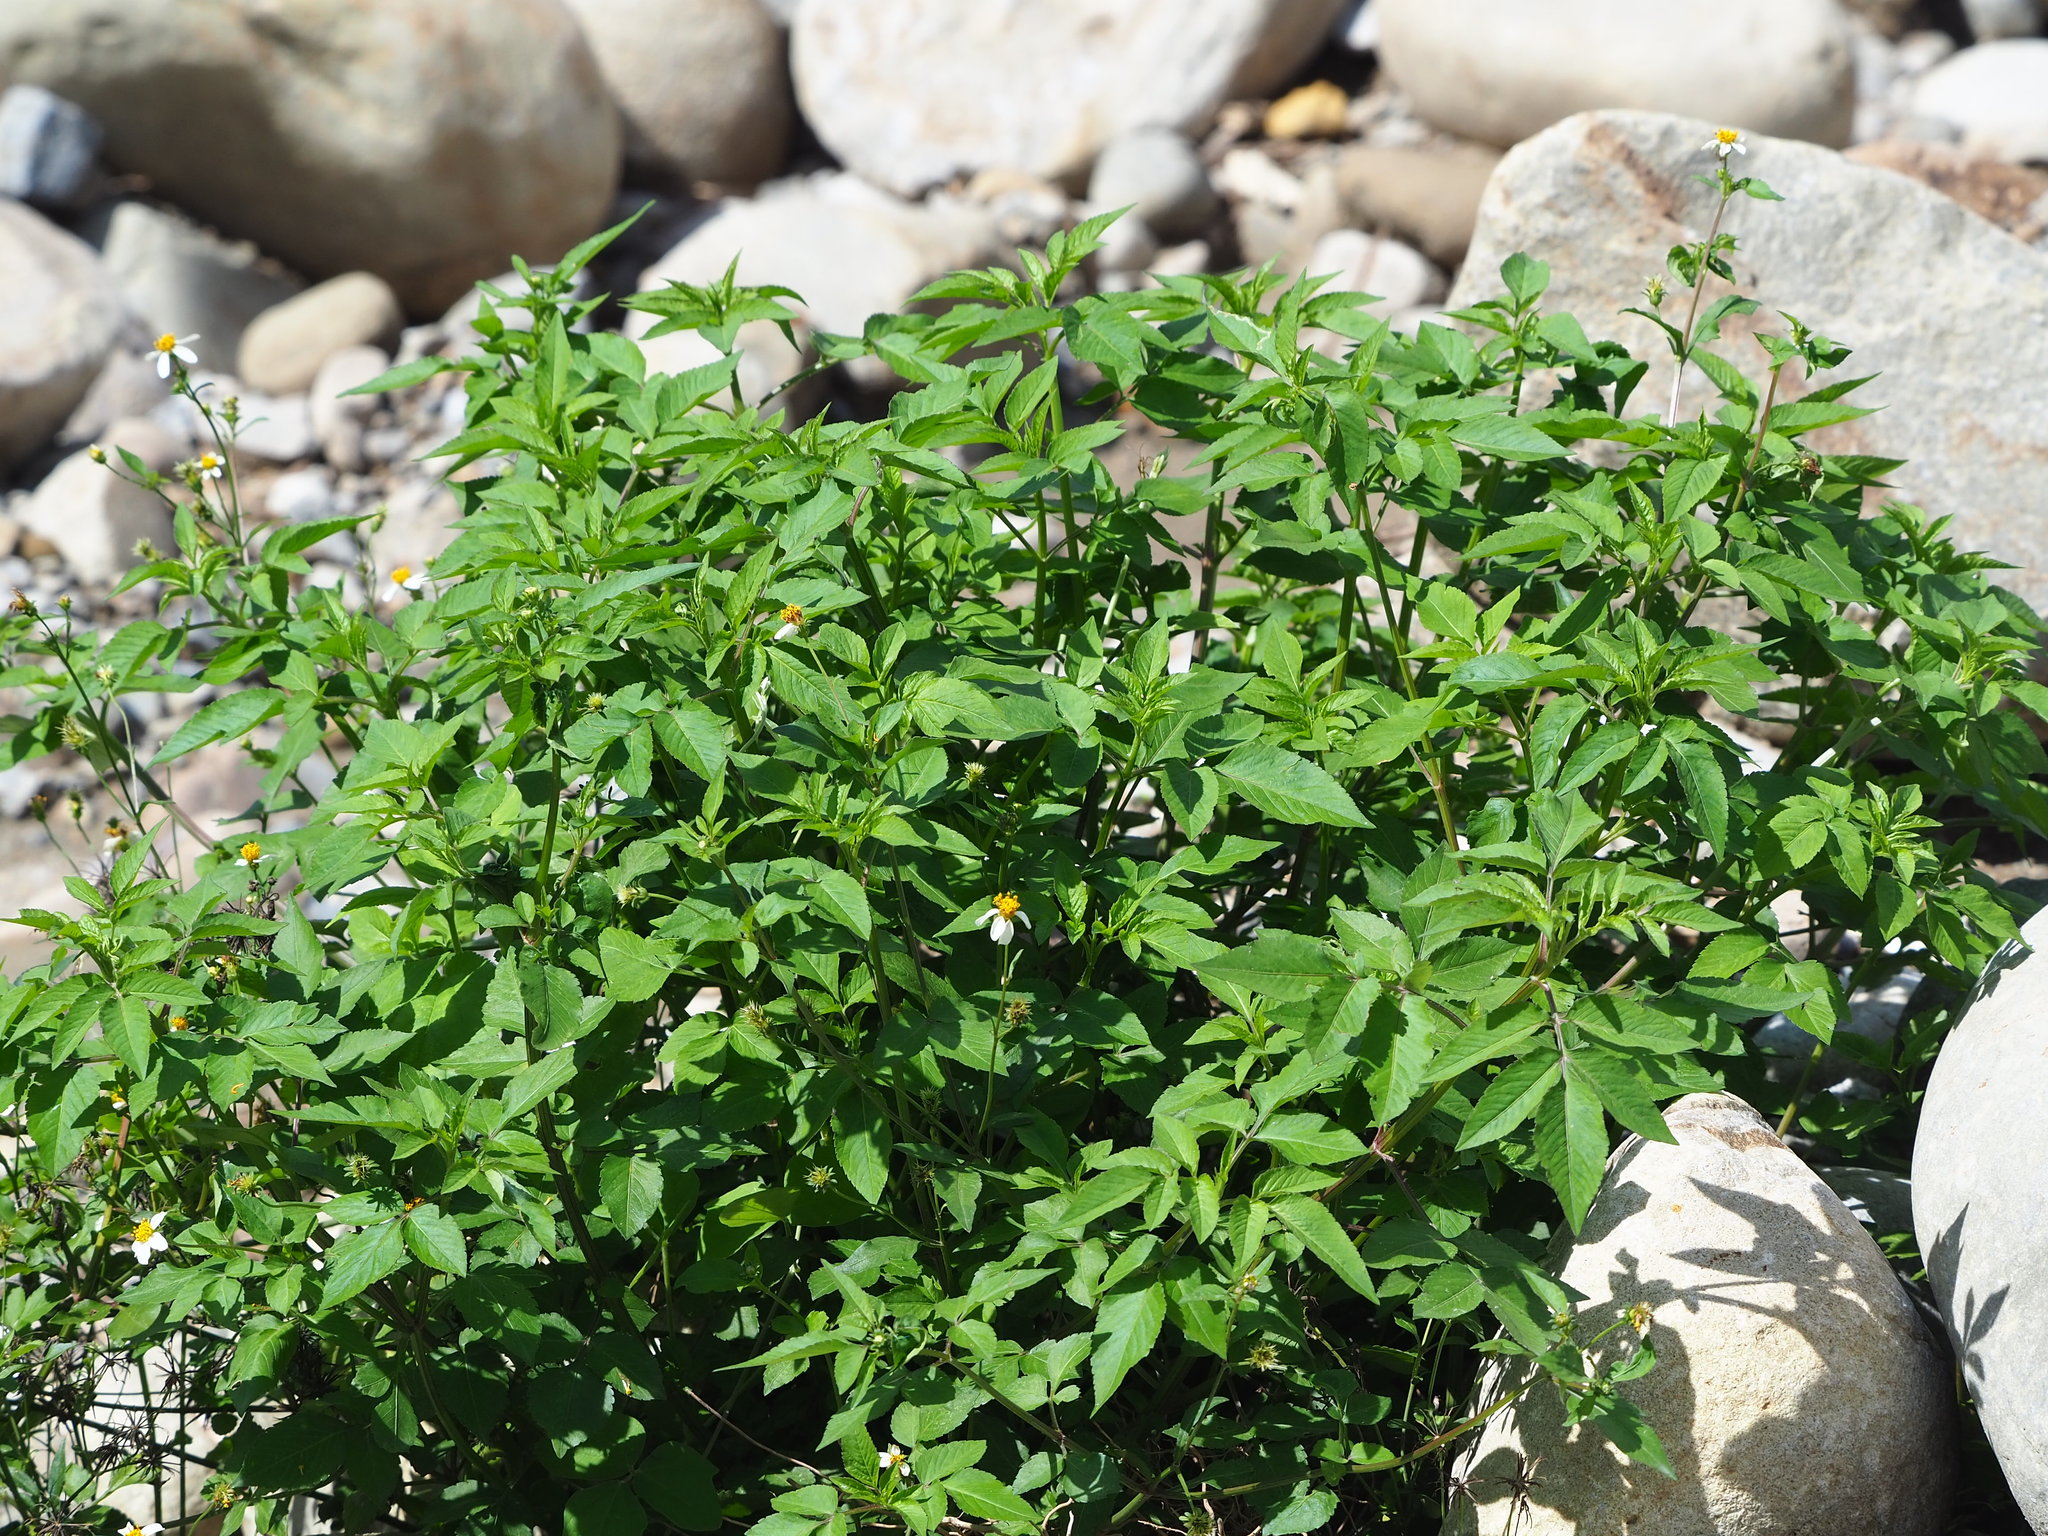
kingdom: Plantae
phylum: Tracheophyta
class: Magnoliopsida
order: Asterales
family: Asteraceae
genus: Bidens
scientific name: Bidens alba
